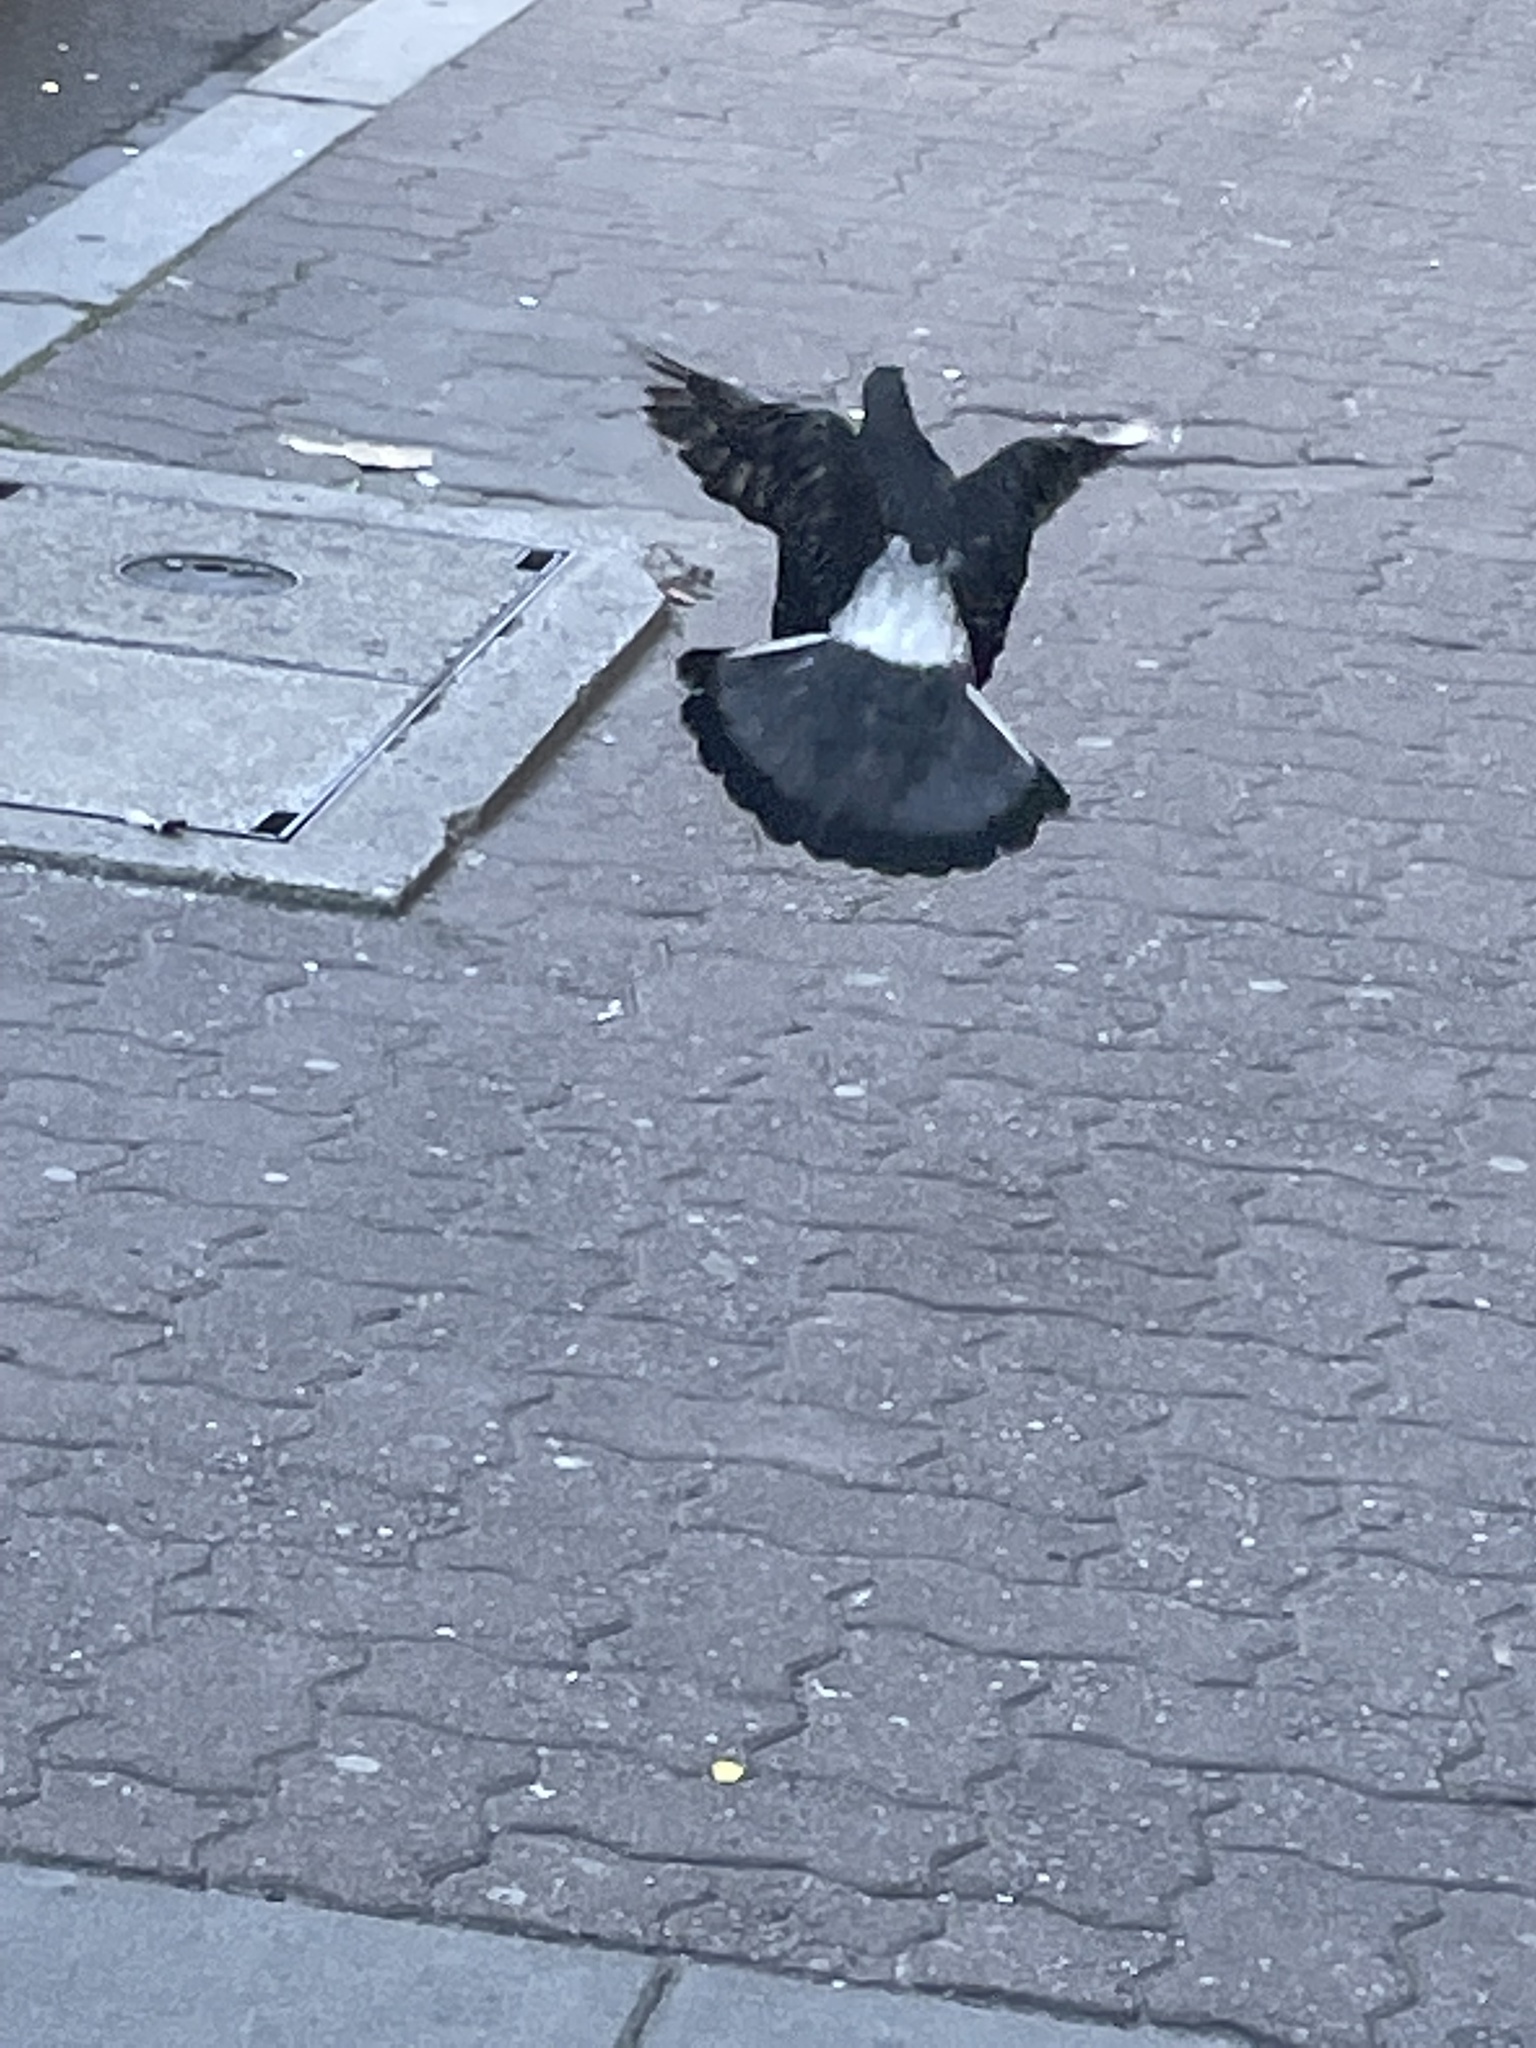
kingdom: Animalia
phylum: Chordata
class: Aves
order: Columbiformes
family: Columbidae
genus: Columba
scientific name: Columba livia
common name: Rock pigeon
